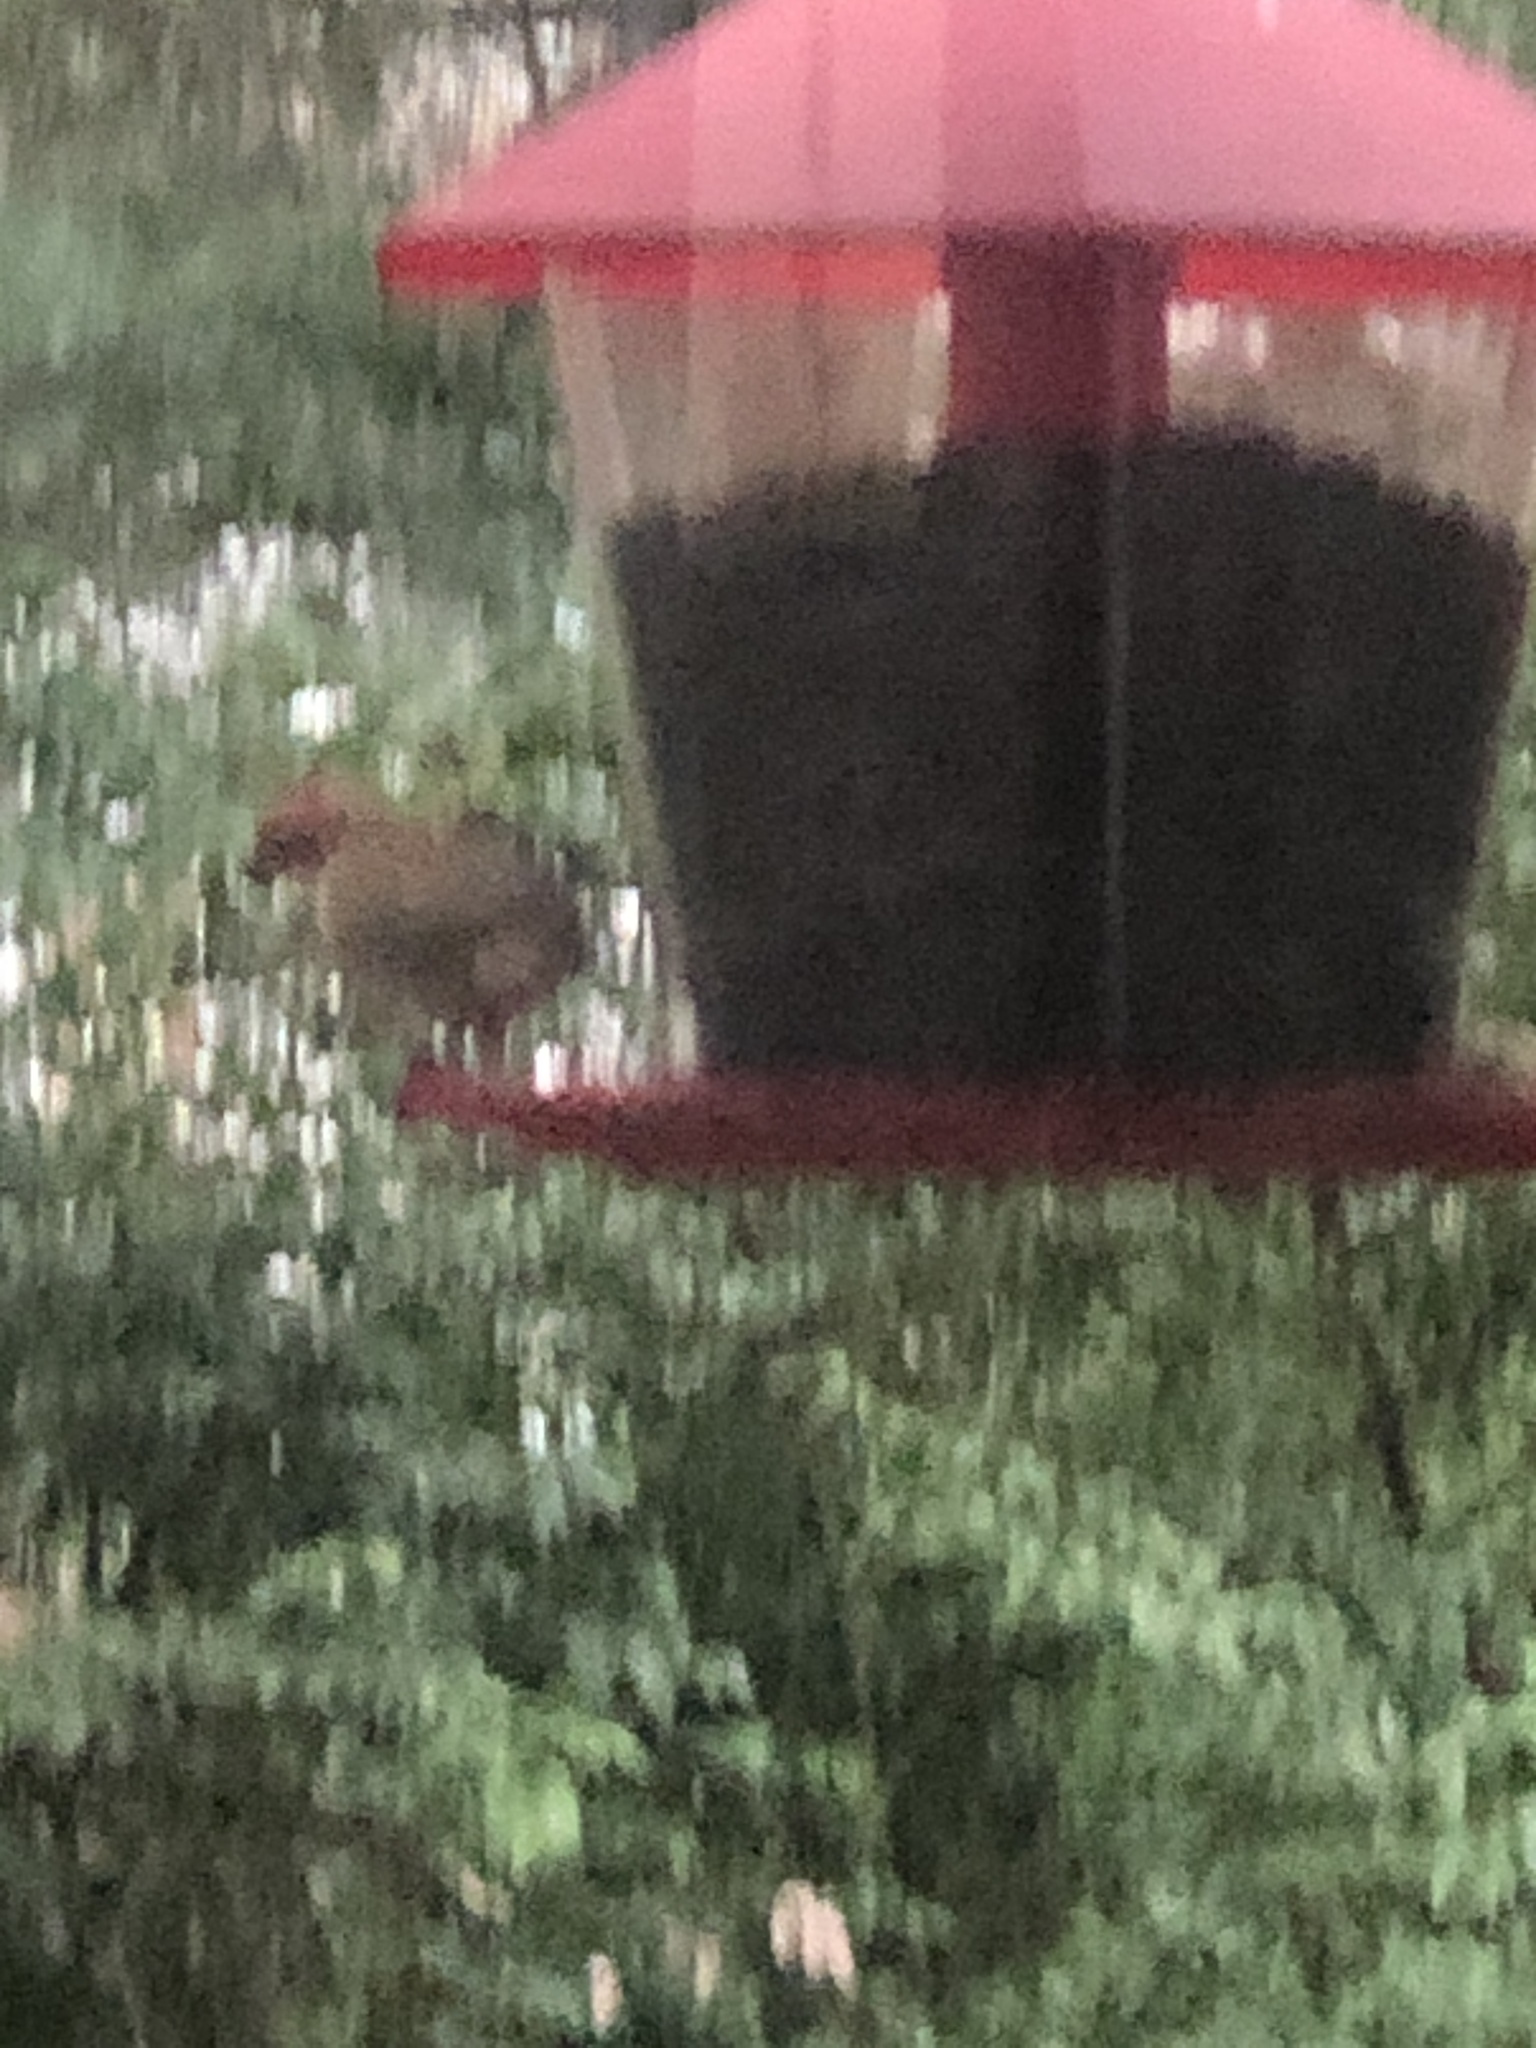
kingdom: Animalia
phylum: Chordata
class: Aves
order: Passeriformes
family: Fringillidae
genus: Haemorhous
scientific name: Haemorhous purpureus
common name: Purple finch
